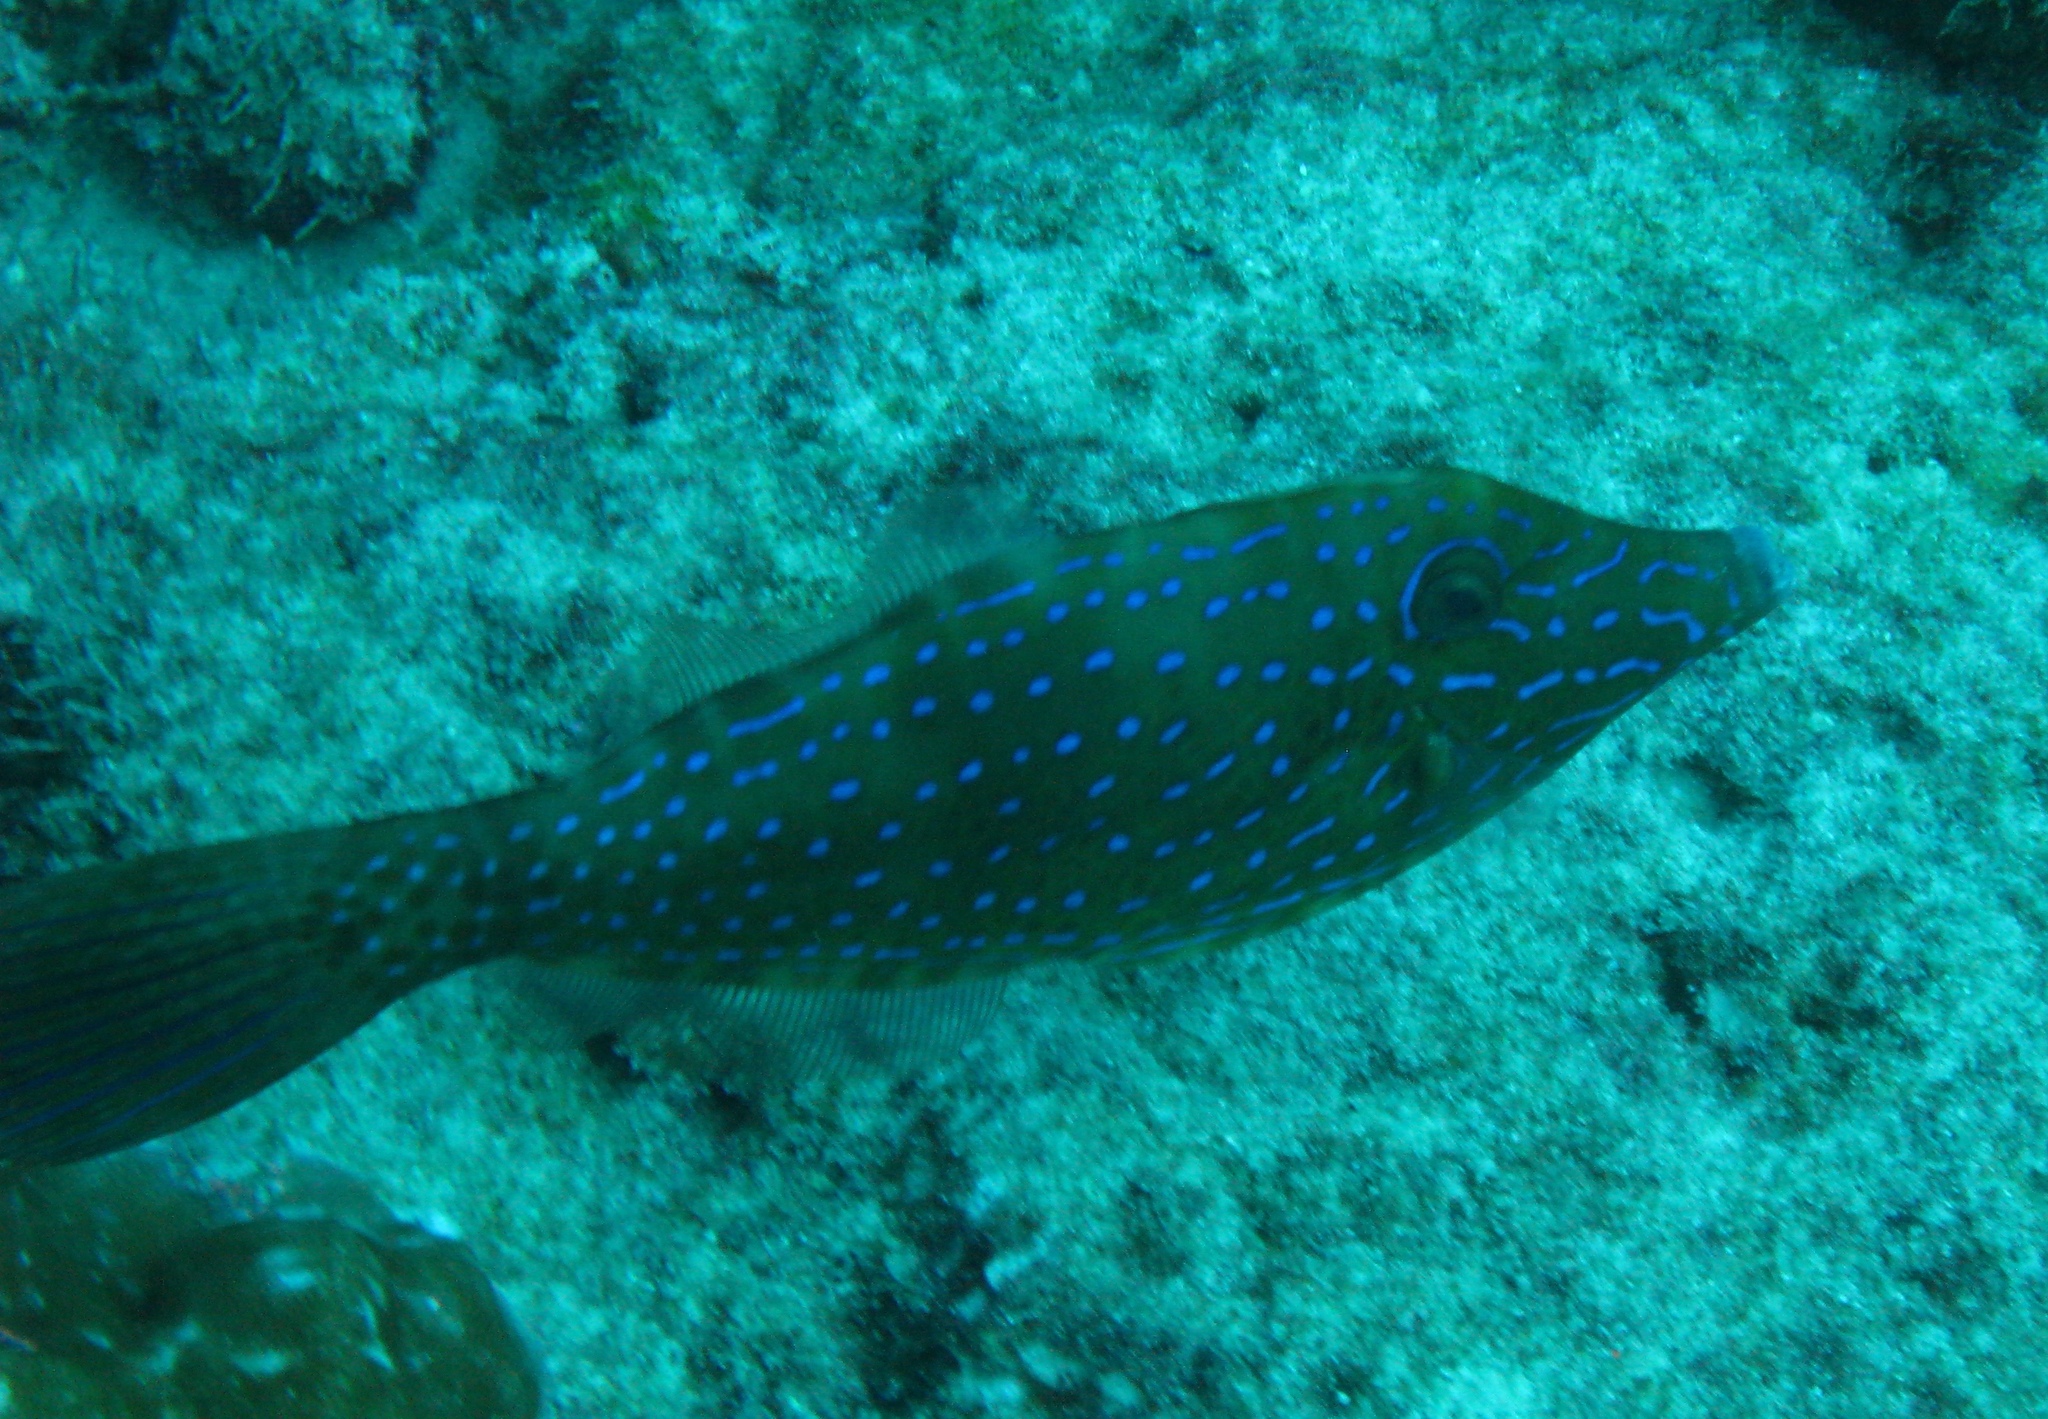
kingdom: Animalia
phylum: Chordata
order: Tetraodontiformes
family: Monacanthidae
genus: Aluterus
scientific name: Aluterus scriptus
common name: Scribbled leatherjacket filefish
